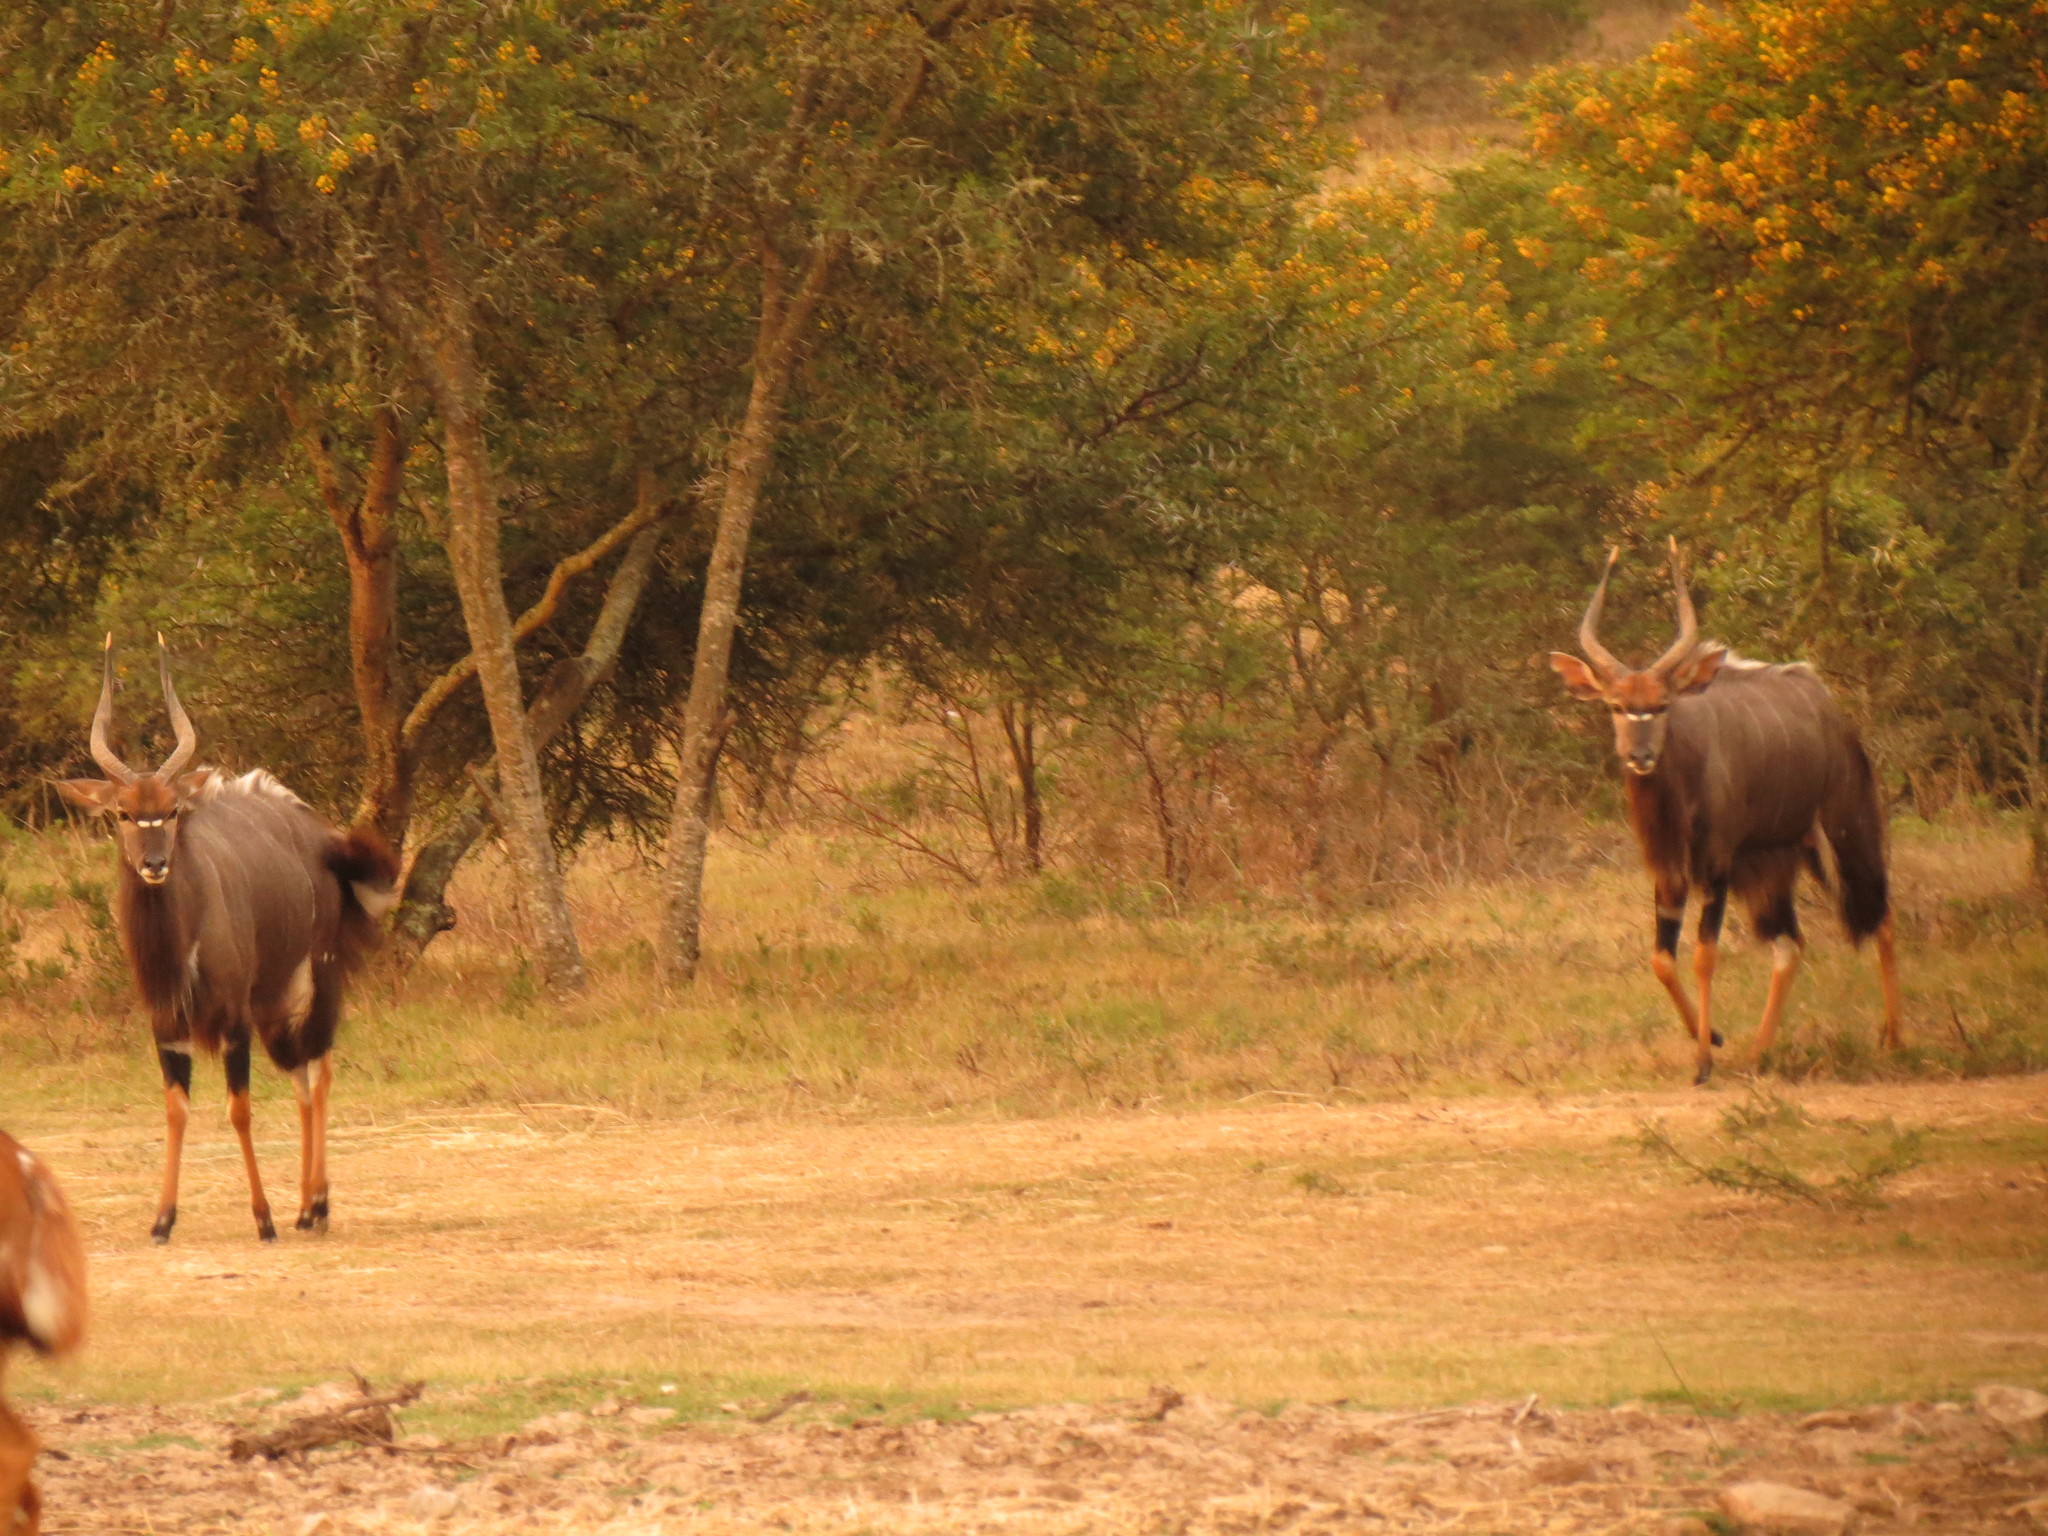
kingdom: Animalia
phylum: Chordata
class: Mammalia
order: Artiodactyla
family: Bovidae
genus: Tragelaphus
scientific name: Tragelaphus angasii
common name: Nyala
